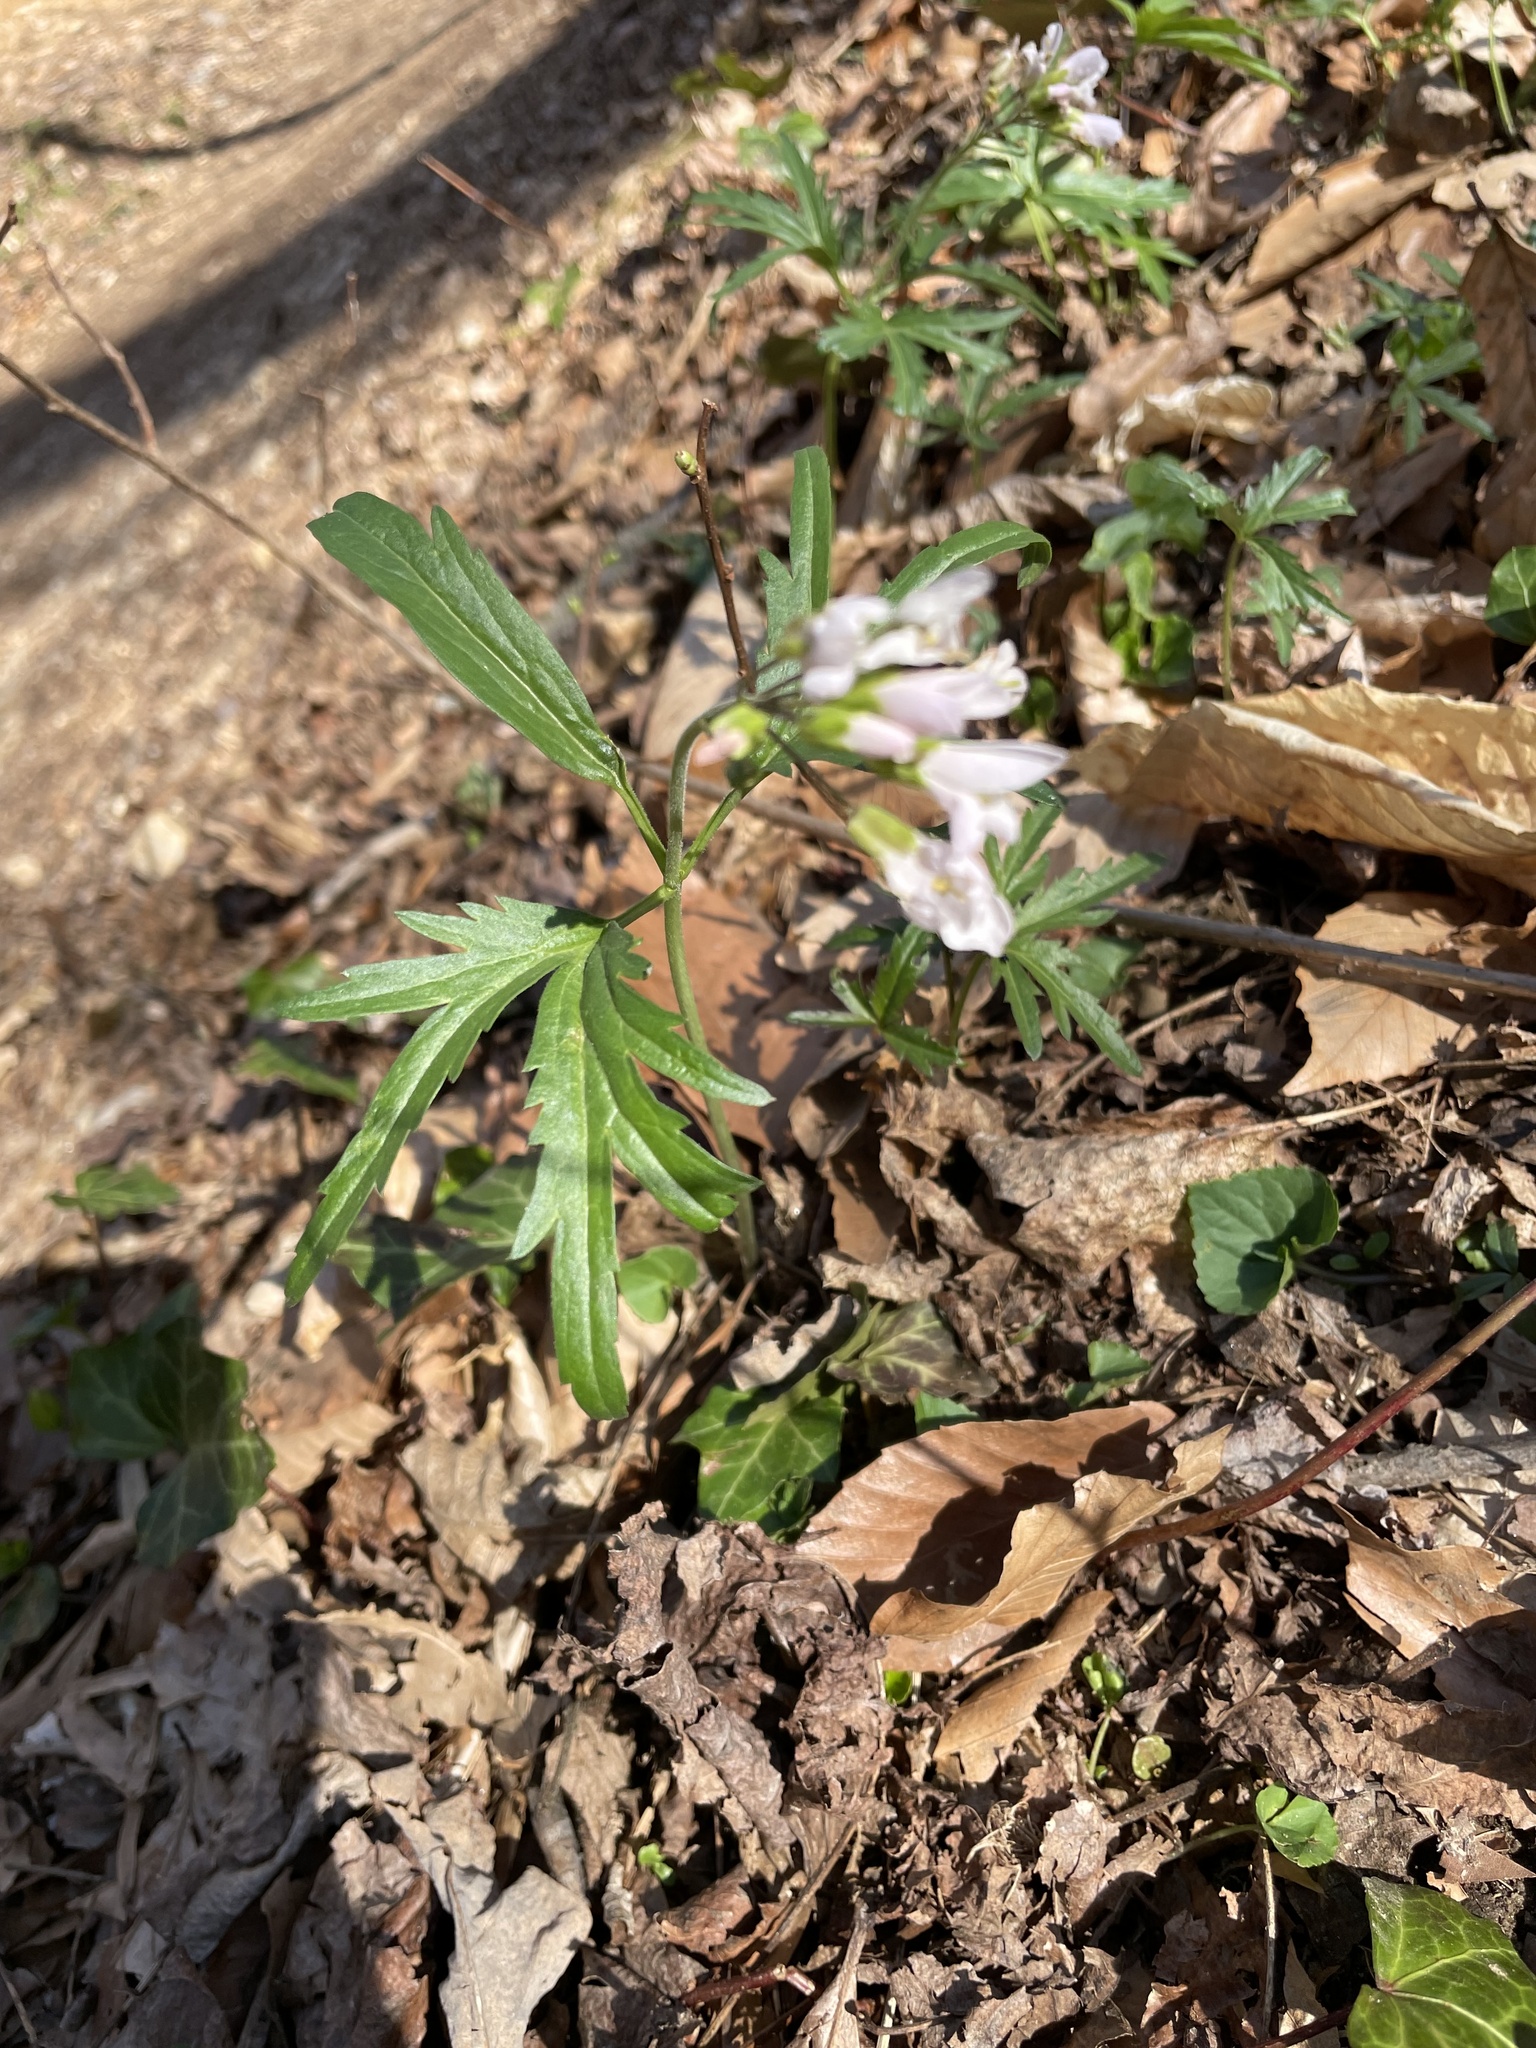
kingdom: Plantae
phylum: Tracheophyta
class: Magnoliopsida
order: Brassicales
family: Brassicaceae
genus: Cardamine
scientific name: Cardamine concatenata
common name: Cut-leaf toothcup
